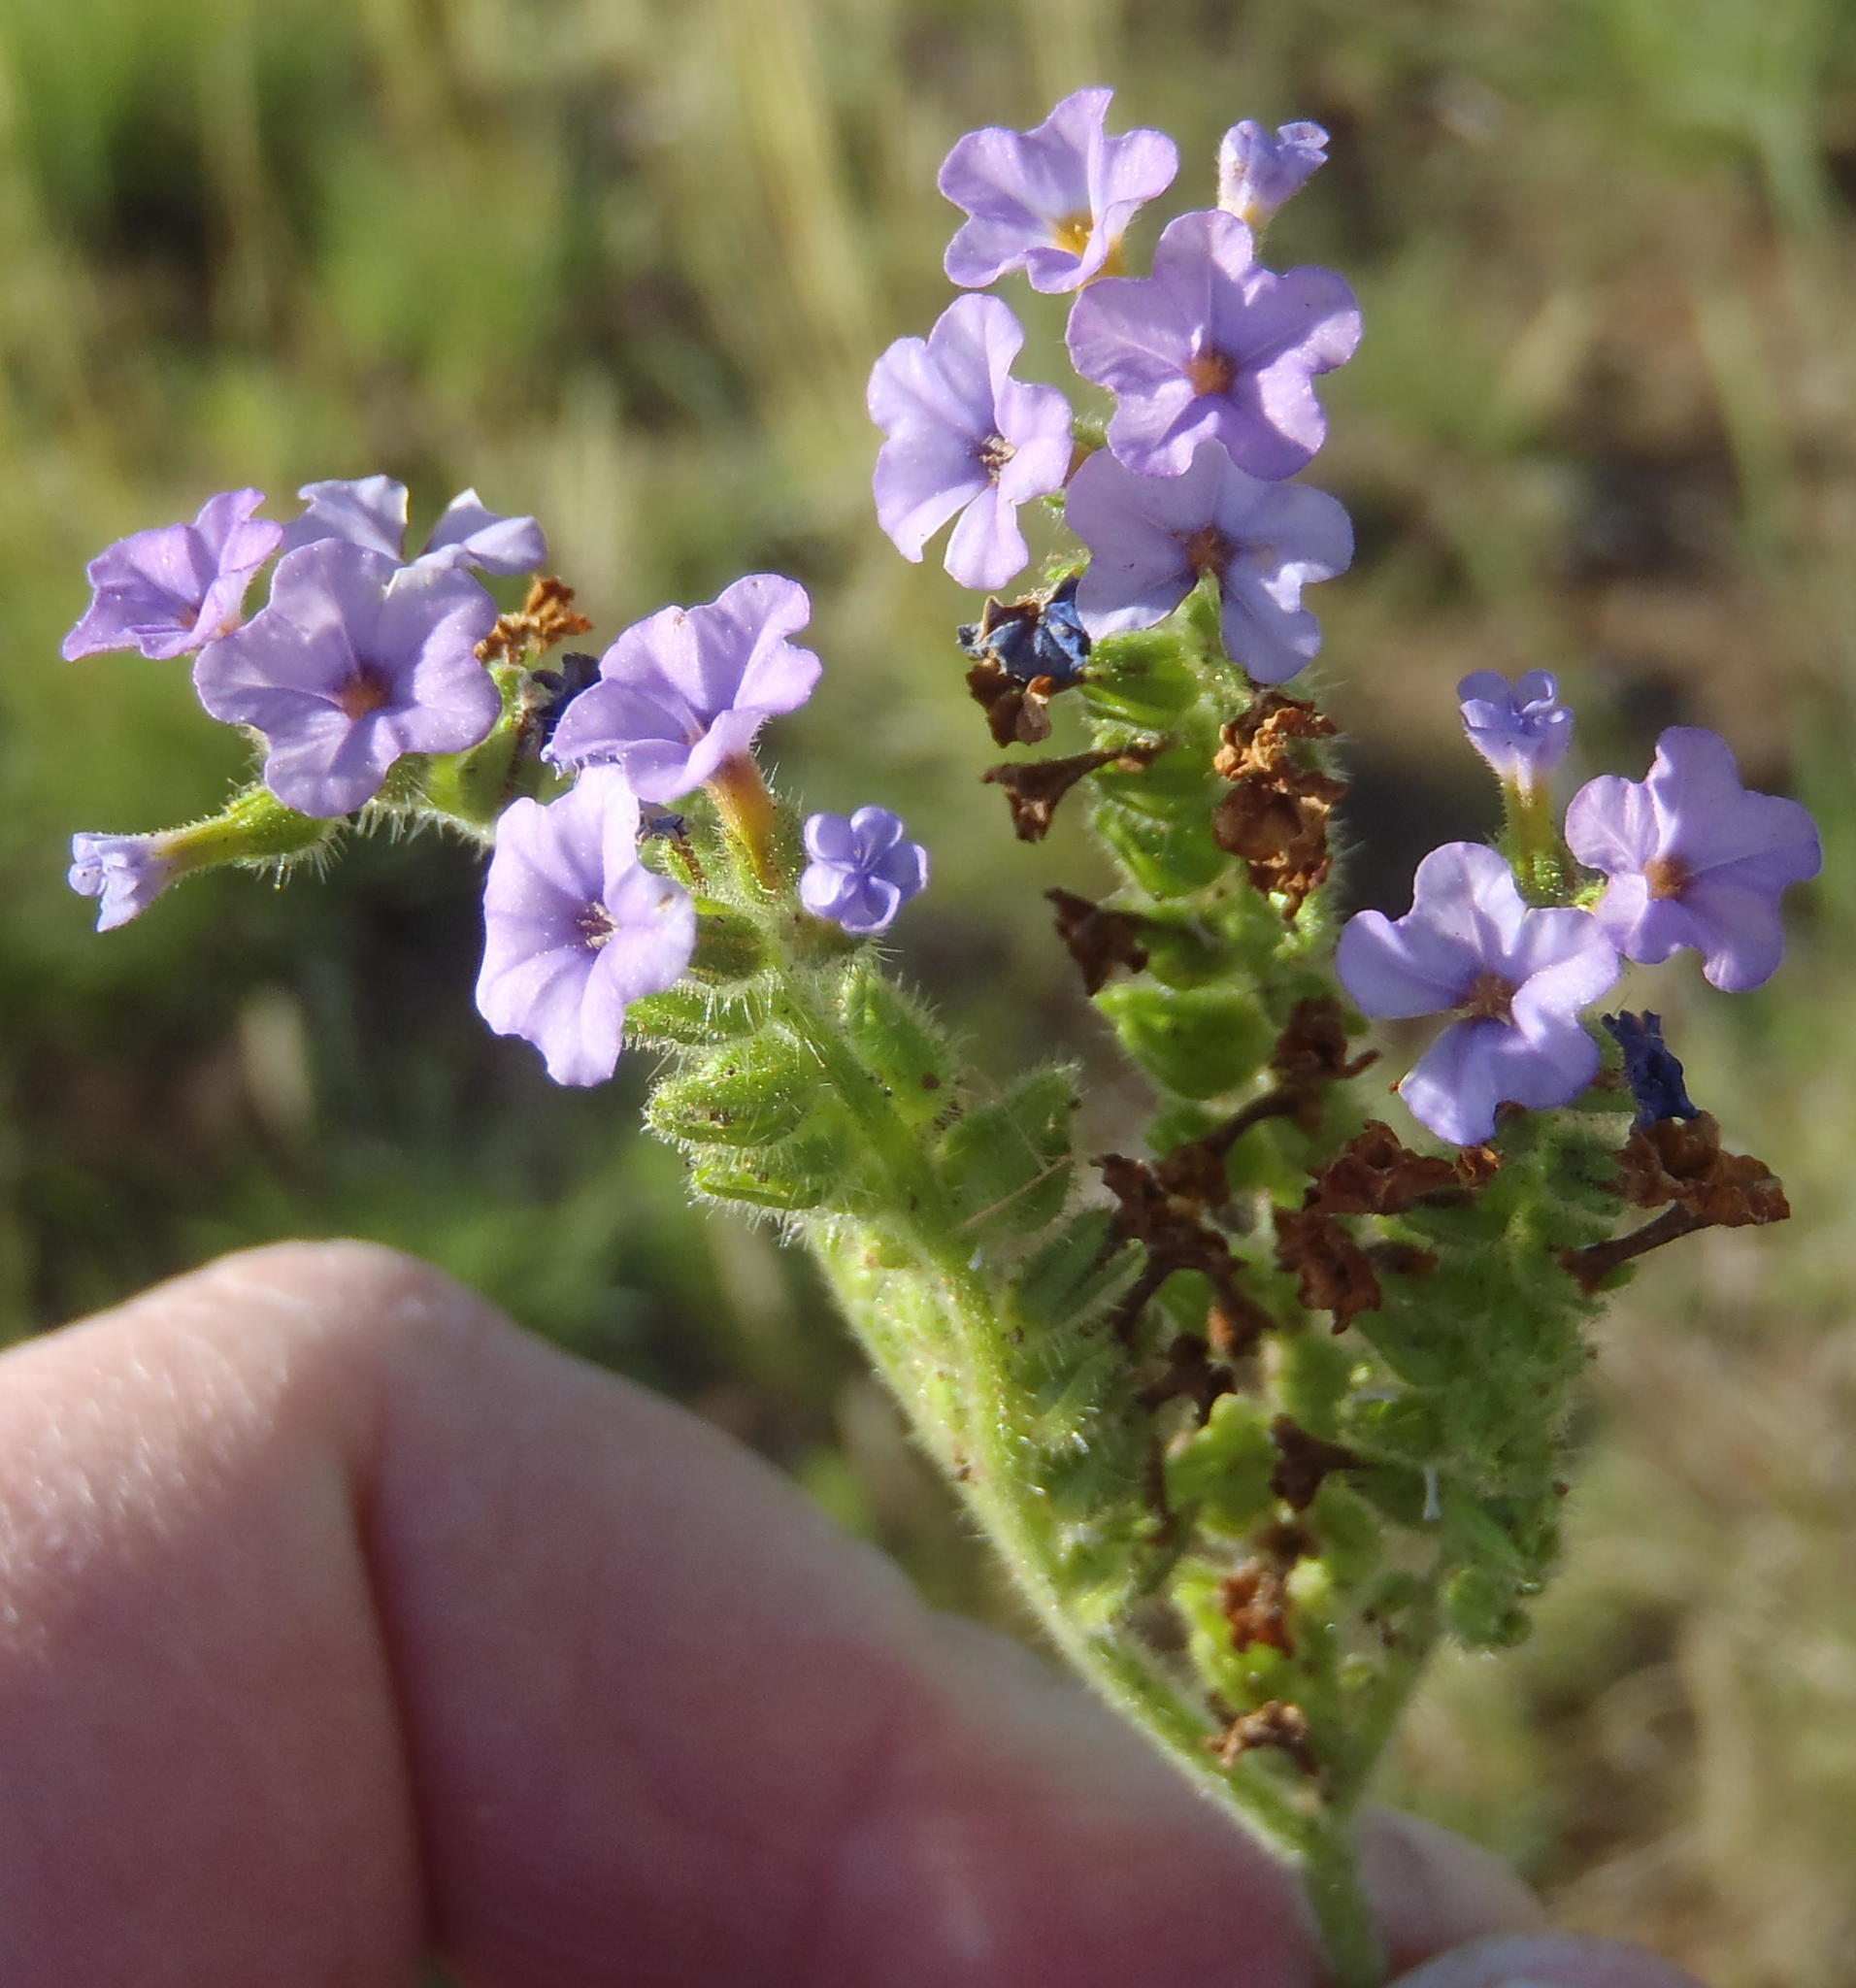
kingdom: Plantae
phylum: Tracheophyta
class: Magnoliopsida
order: Boraginales
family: Heliotropiaceae
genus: Heliotropium
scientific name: Heliotropium amplexicaule
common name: Clasping heliotrope
